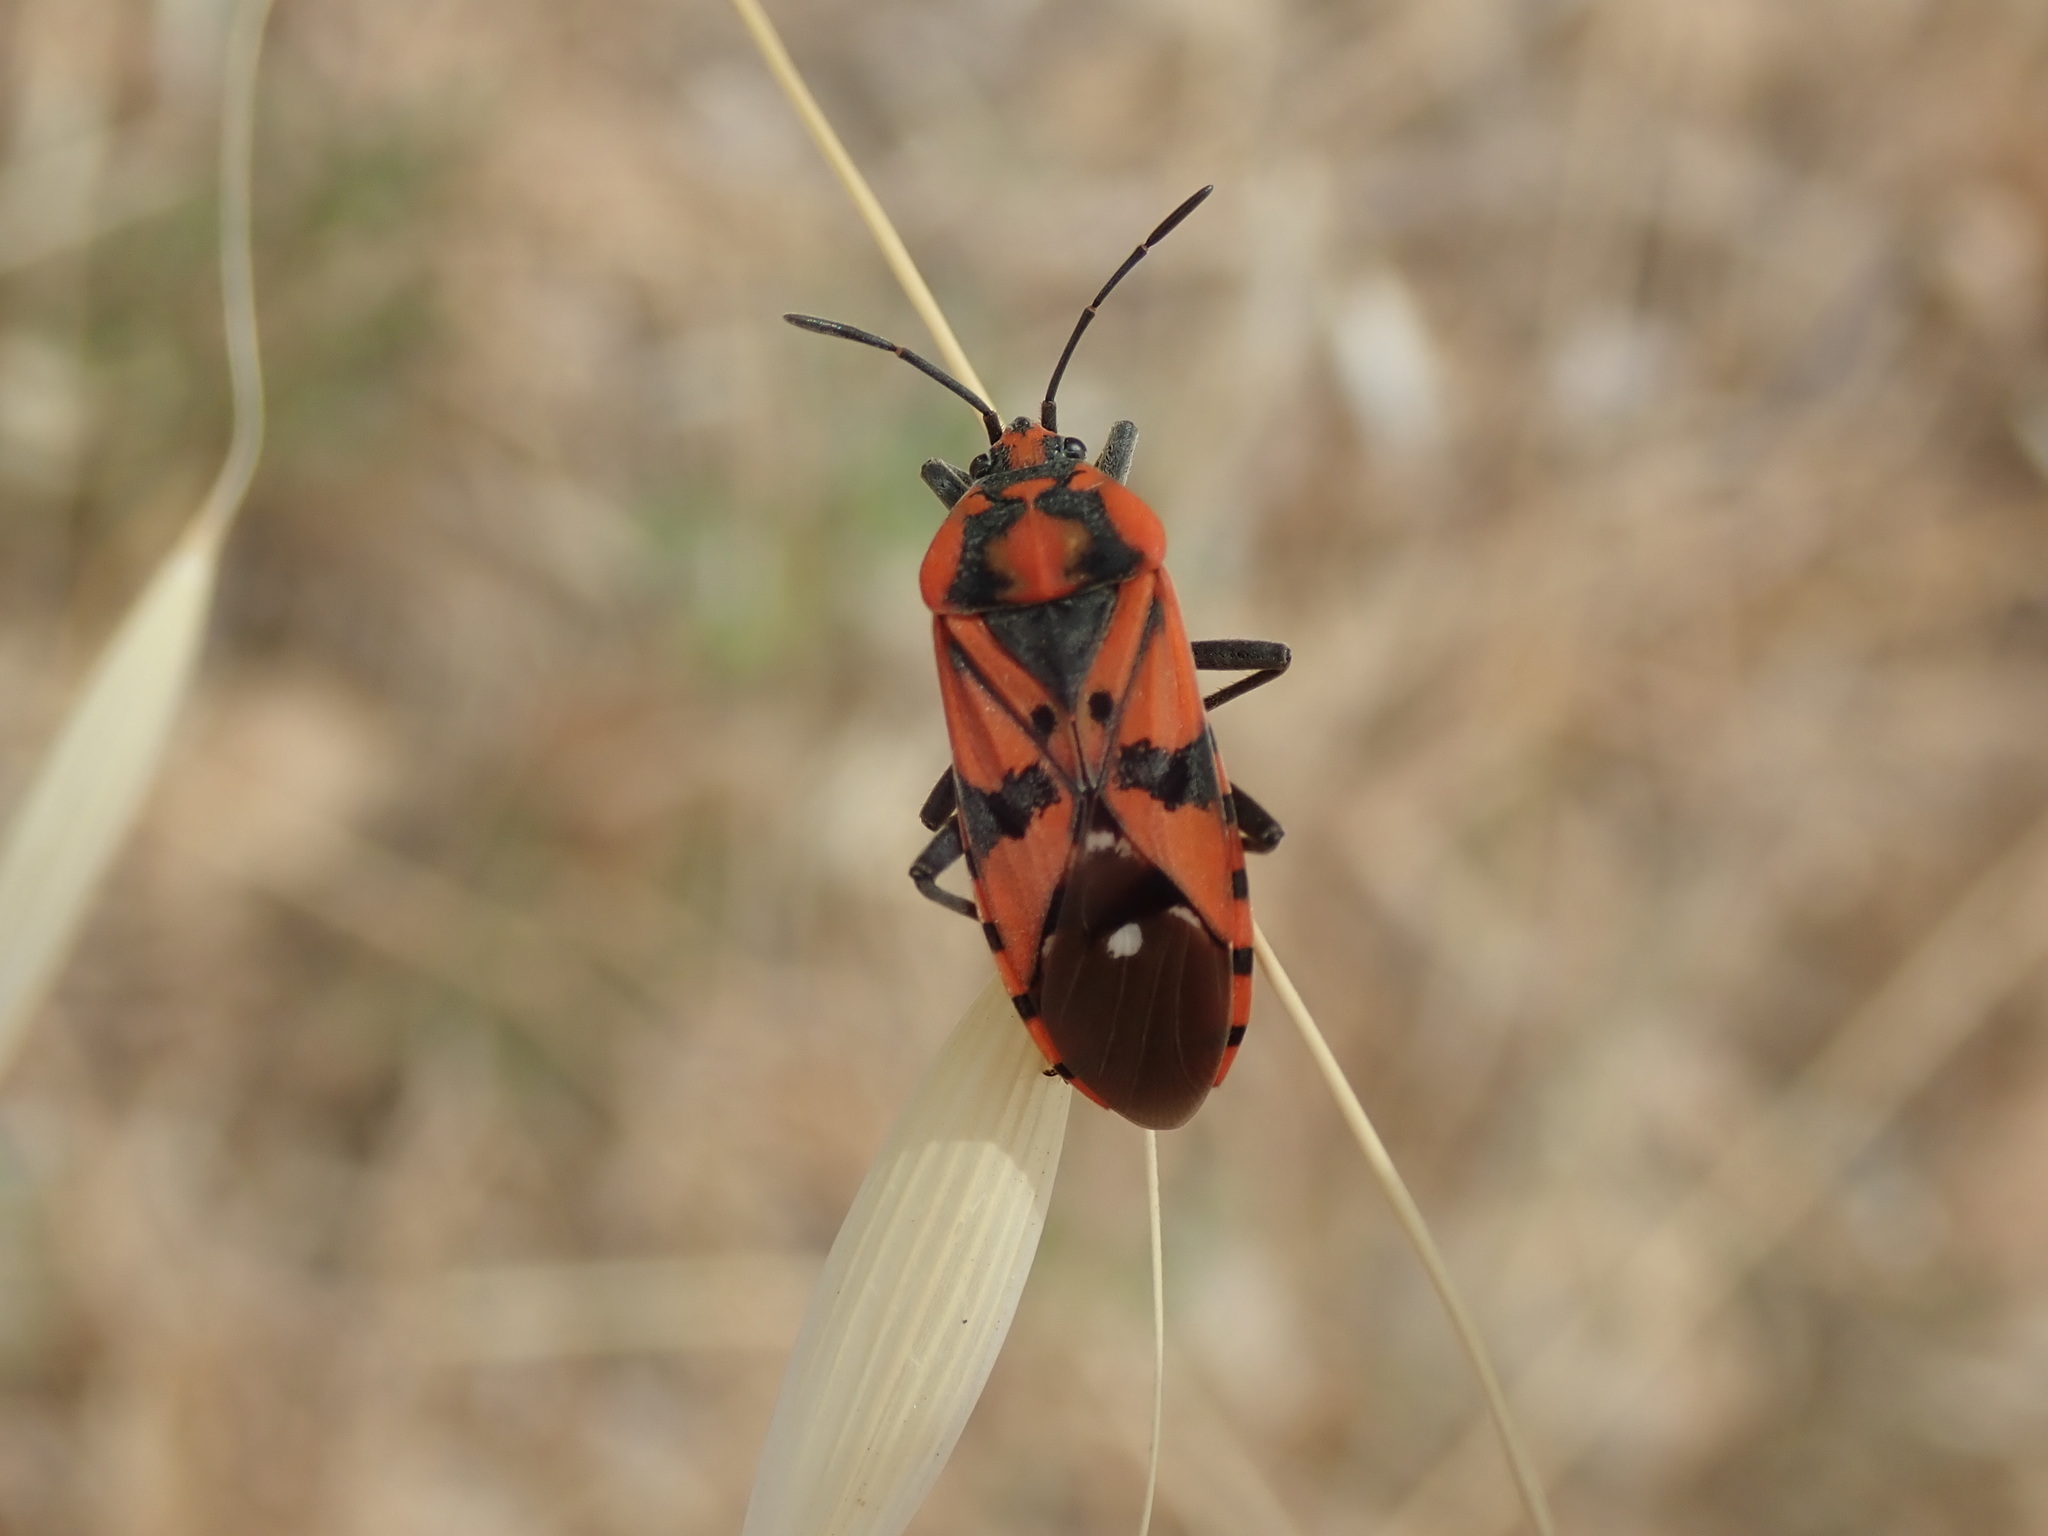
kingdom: Animalia
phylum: Arthropoda
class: Insecta
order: Hemiptera
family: Lygaeidae
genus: Spilostethus
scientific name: Spilostethus pandurus
